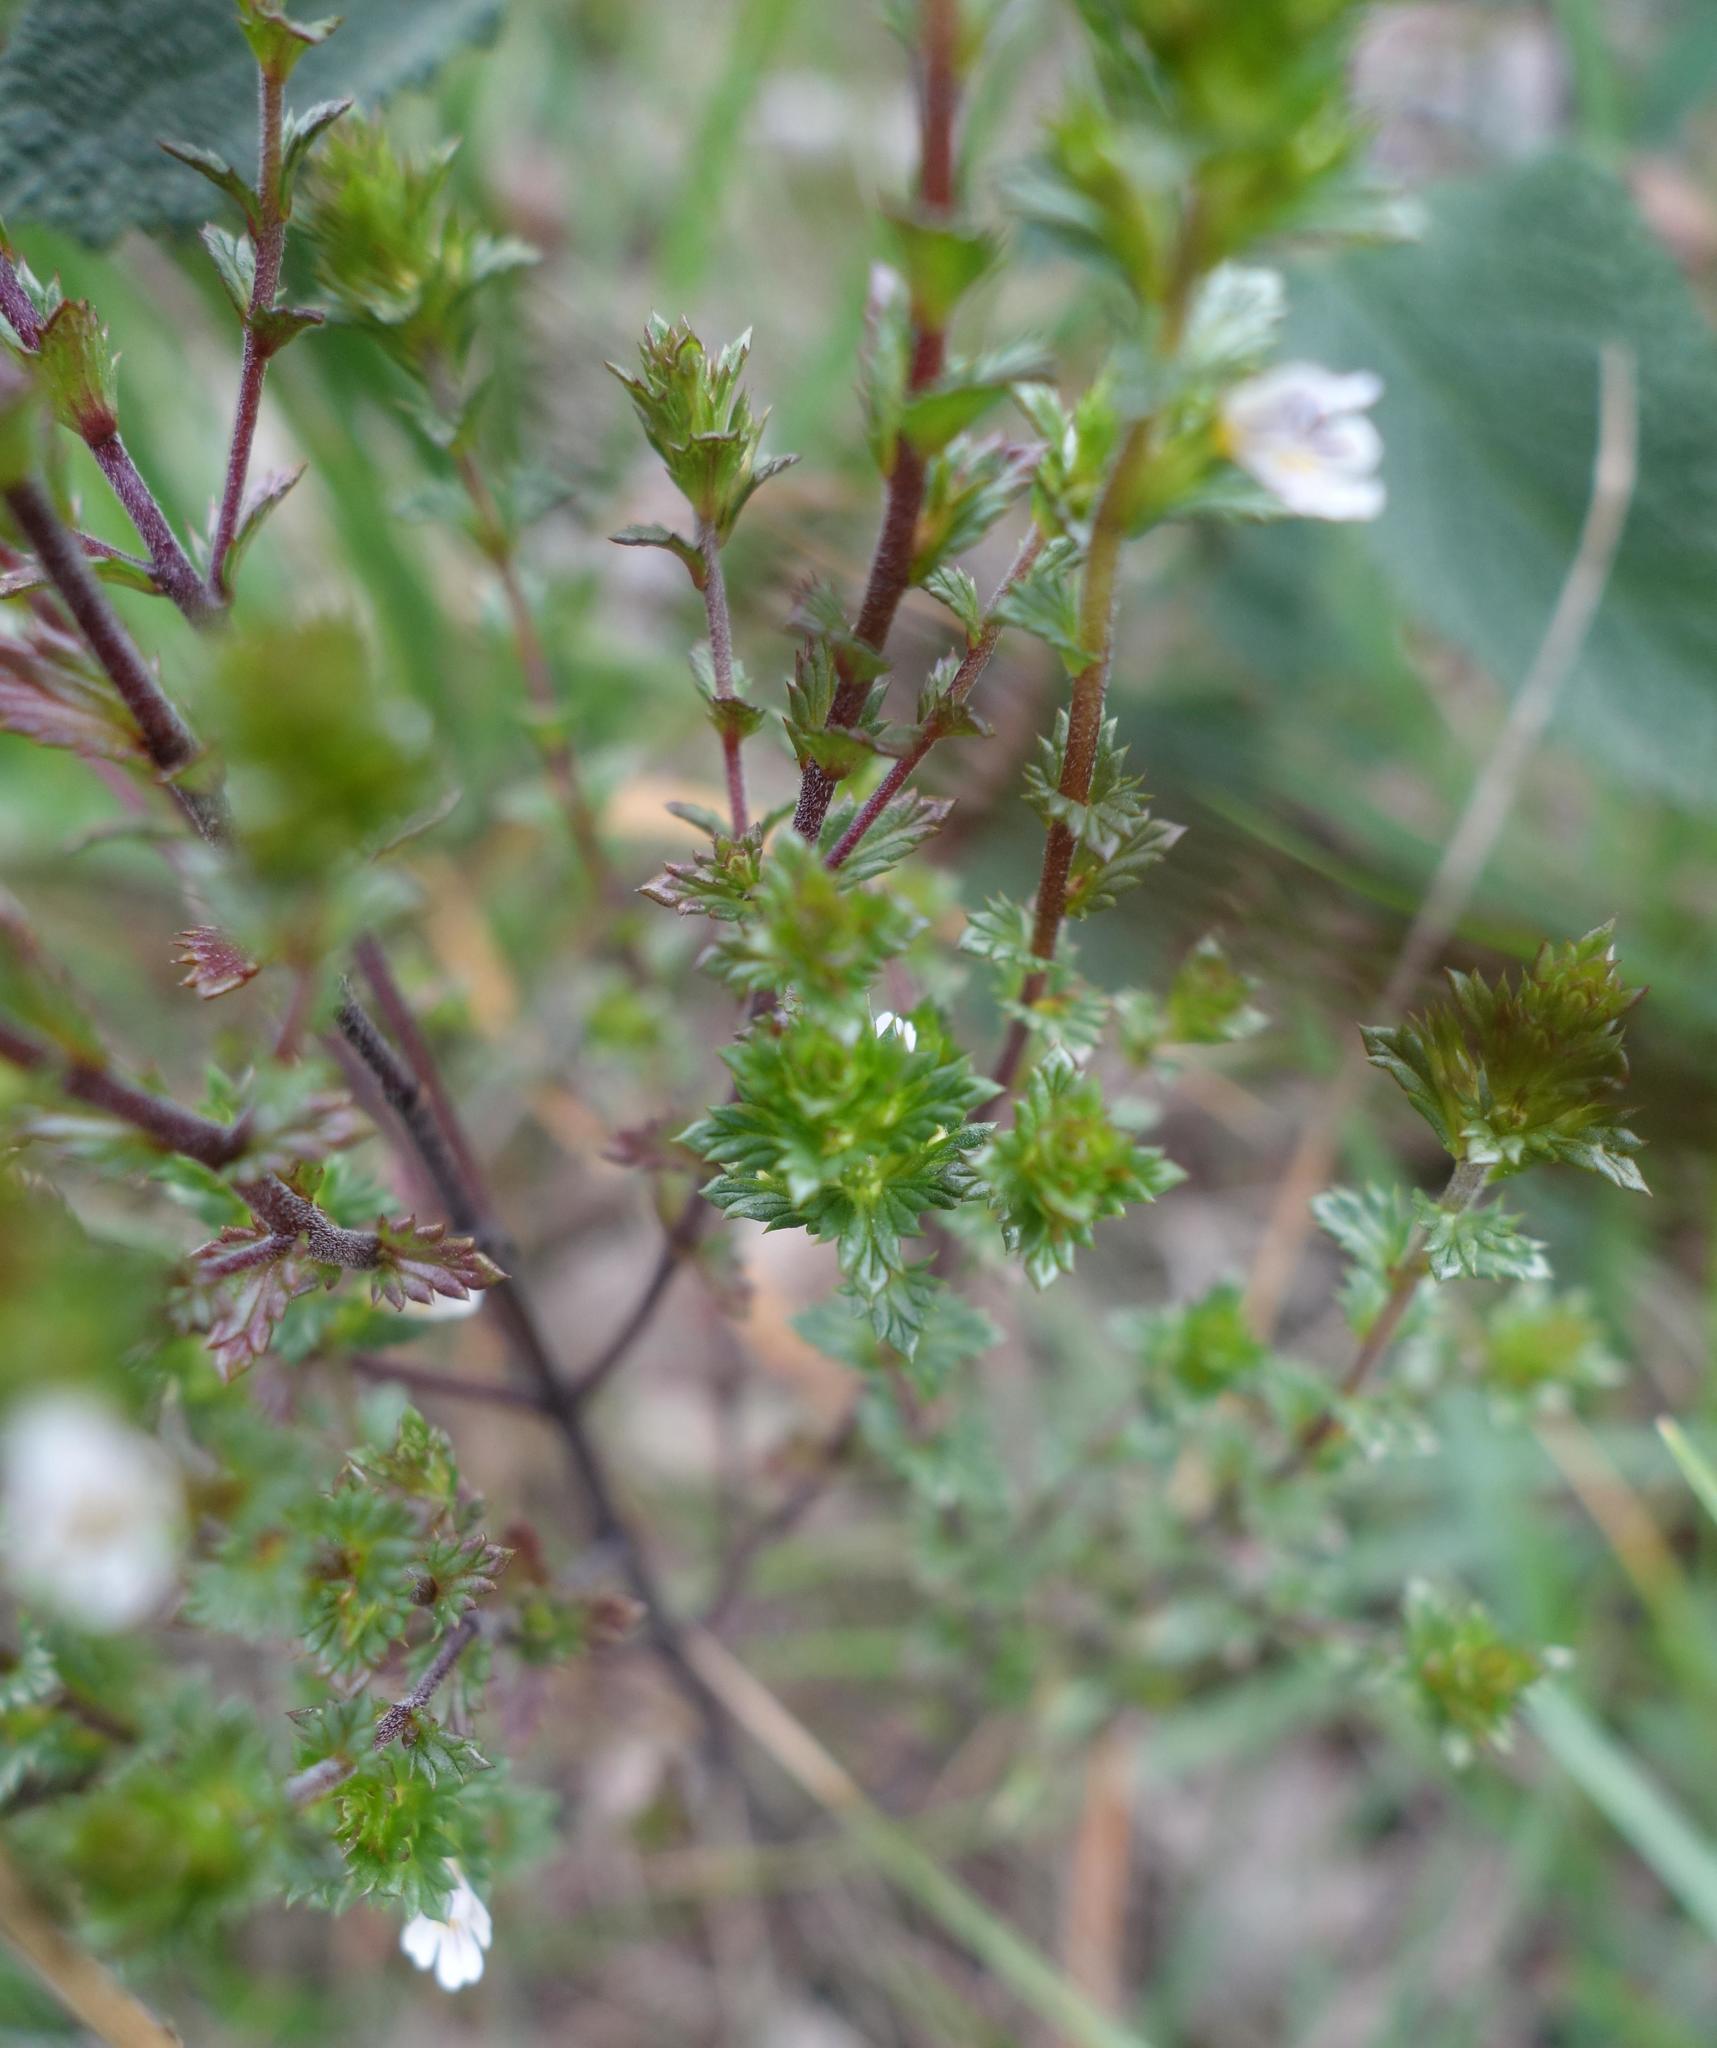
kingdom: Plantae
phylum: Tracheophyta
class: Magnoliopsida
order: Lamiales
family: Orobanchaceae
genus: Euphrasia
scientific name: Euphrasia nemorosa
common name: Common eyebright
